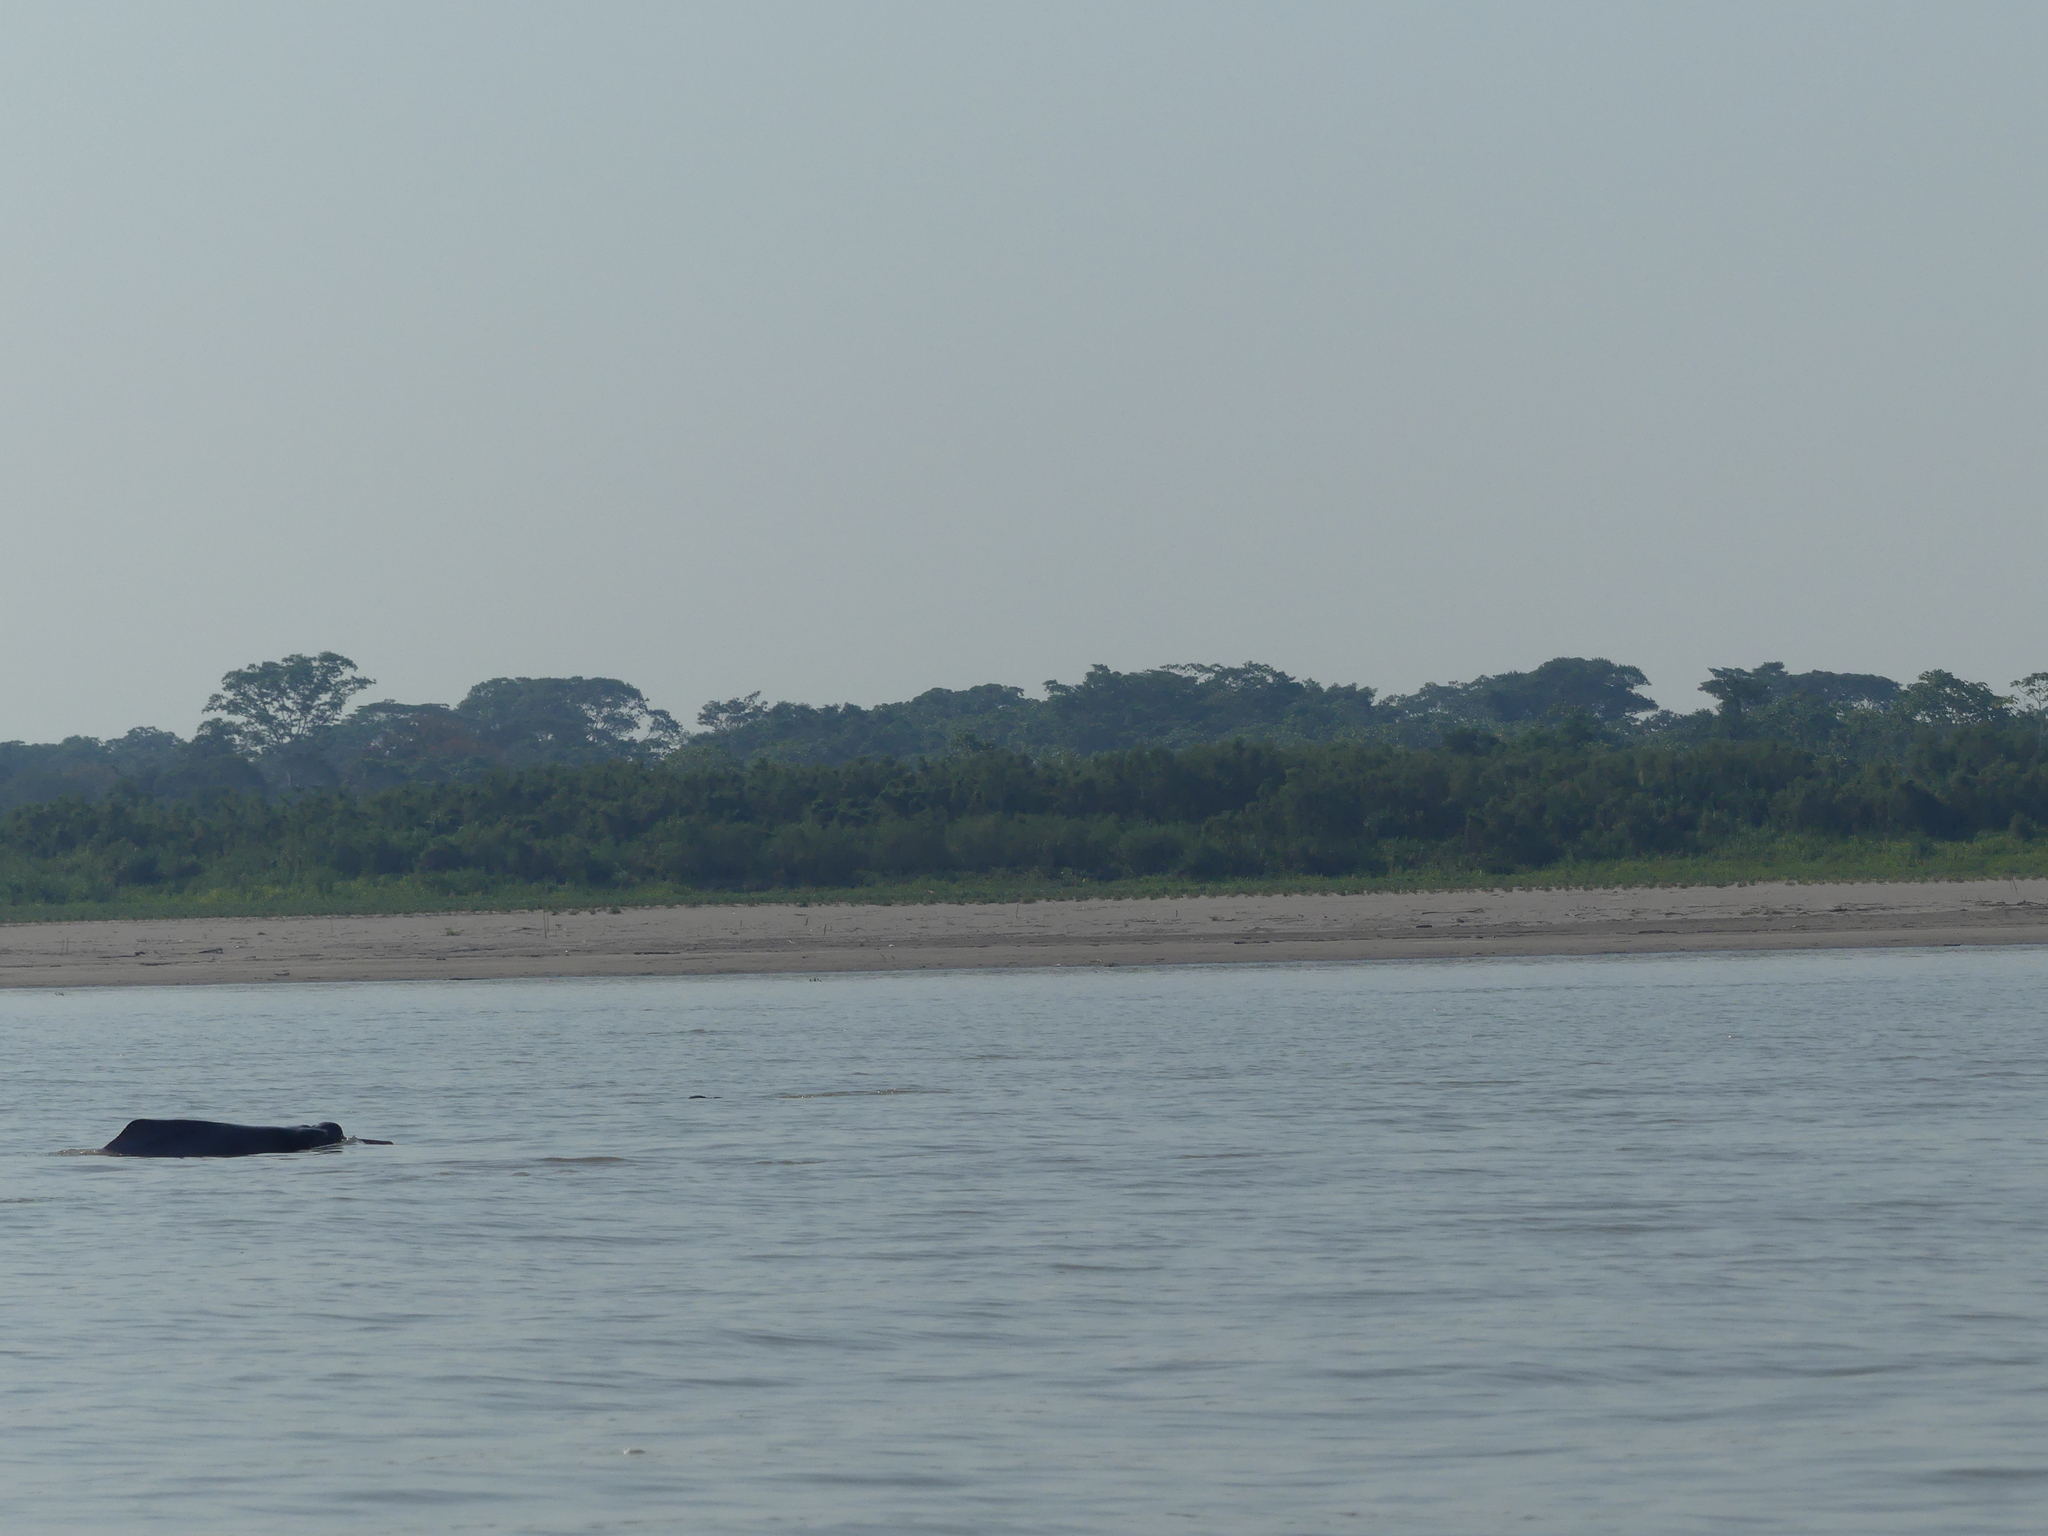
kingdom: Animalia
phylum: Chordata
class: Mammalia
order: Cetacea
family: Iniidae
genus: Inia
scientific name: Inia geoffrensis
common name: Amazon river dolphin
